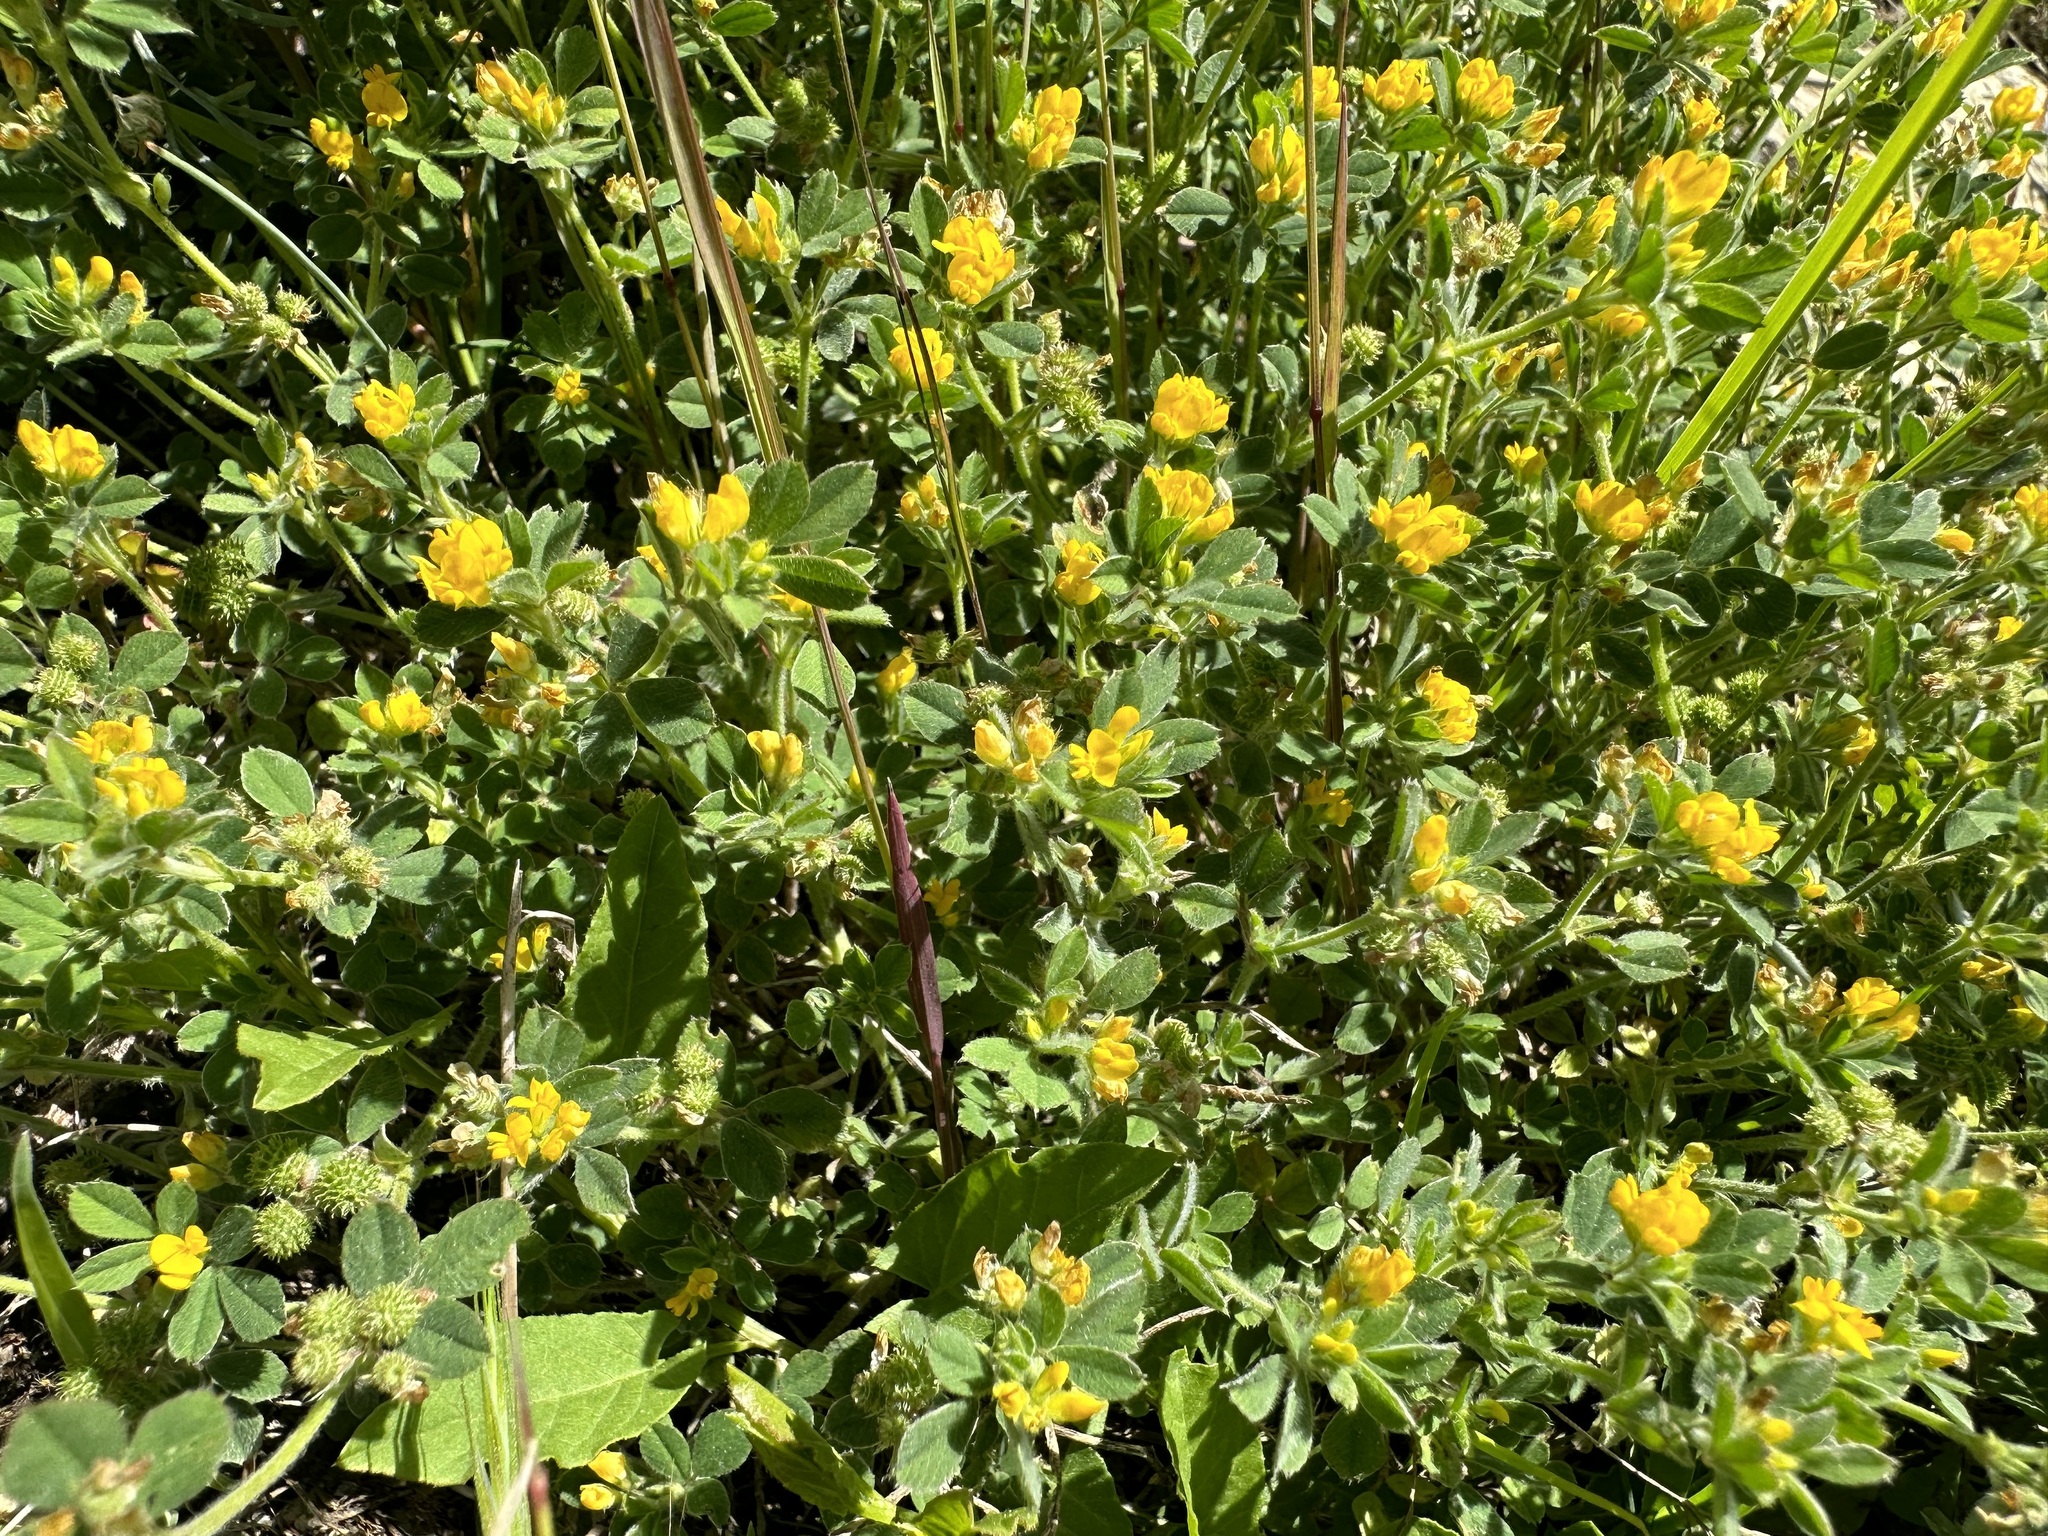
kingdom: Plantae
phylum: Tracheophyta
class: Magnoliopsida
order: Fabales
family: Fabaceae
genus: Medicago
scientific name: Medicago minima
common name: Little bur-clover
